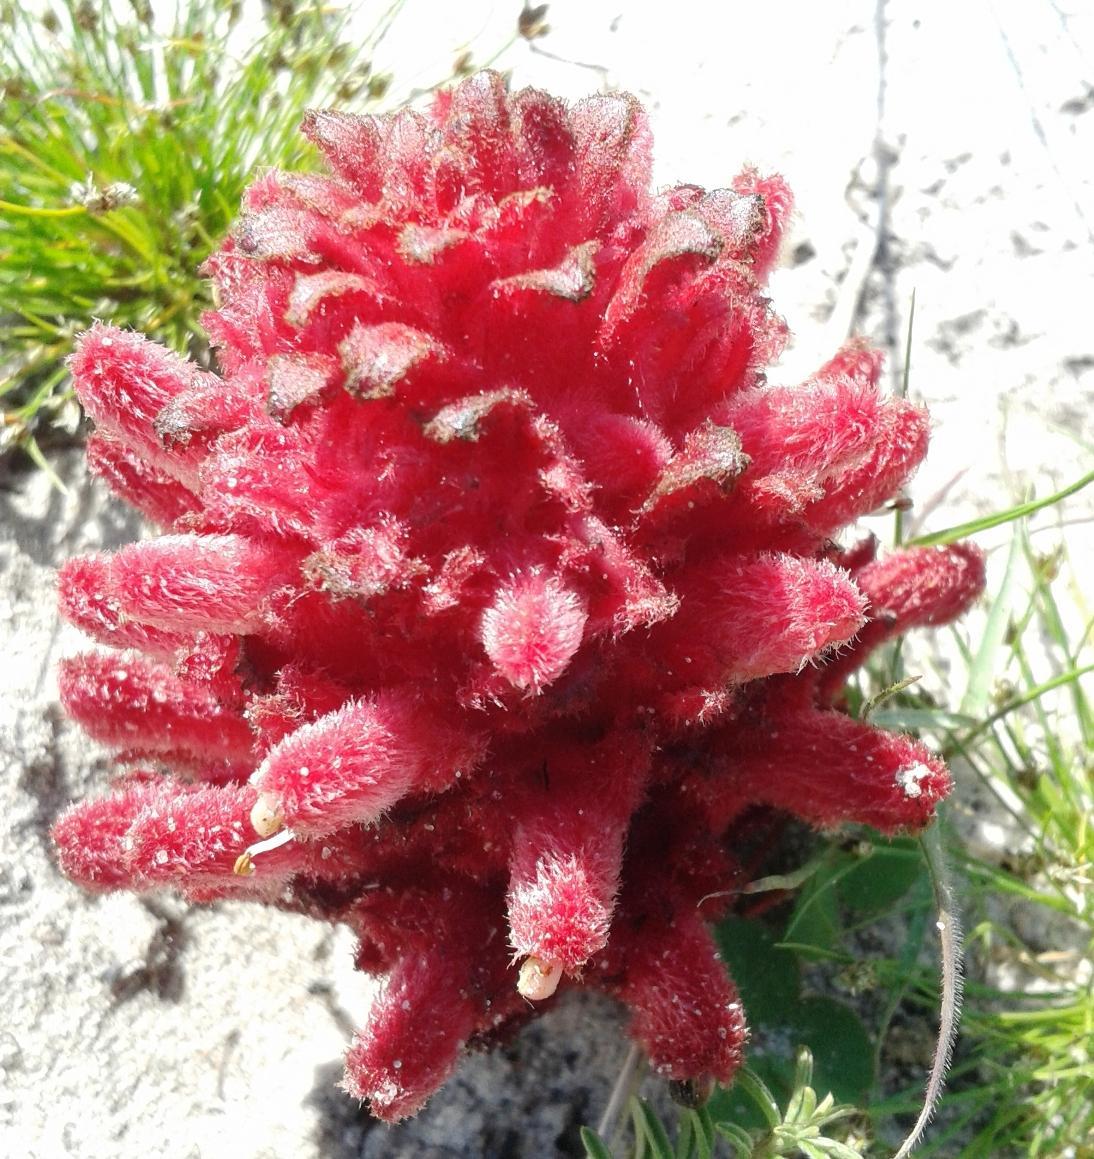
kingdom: Plantae
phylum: Tracheophyta
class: Magnoliopsida
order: Lamiales
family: Orobanchaceae
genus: Hyobanche
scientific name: Hyobanche sanguinea
